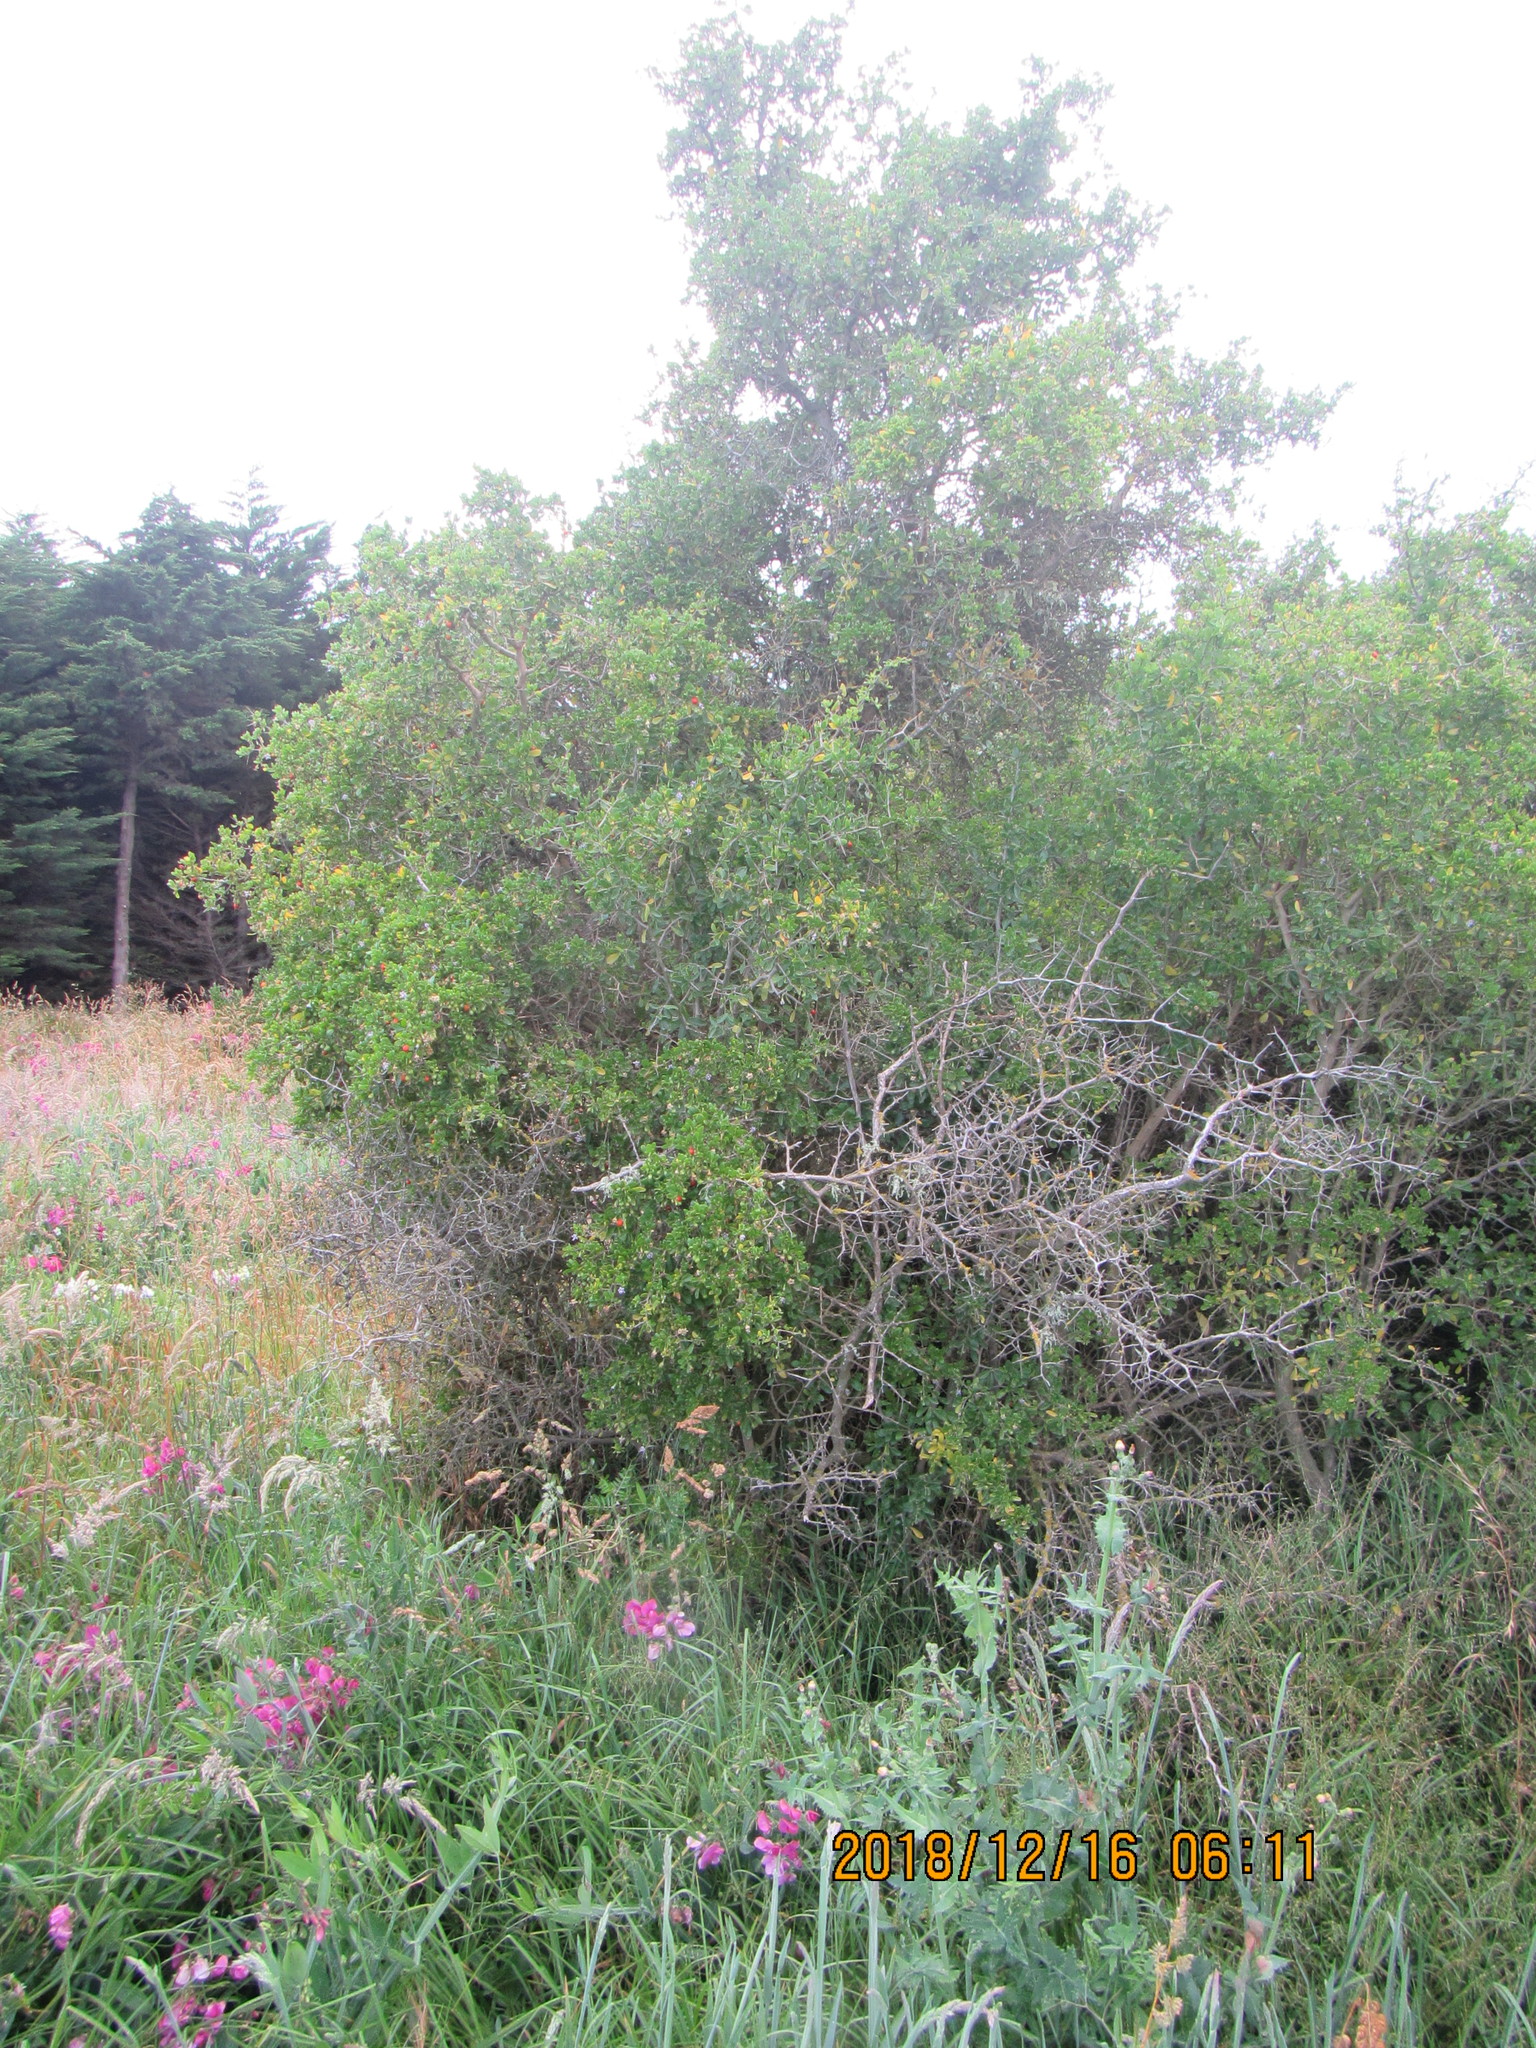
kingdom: Plantae
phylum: Tracheophyta
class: Magnoliopsida
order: Solanales
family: Solanaceae
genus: Lycium
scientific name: Lycium ferocissimum
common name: African boxthorn
